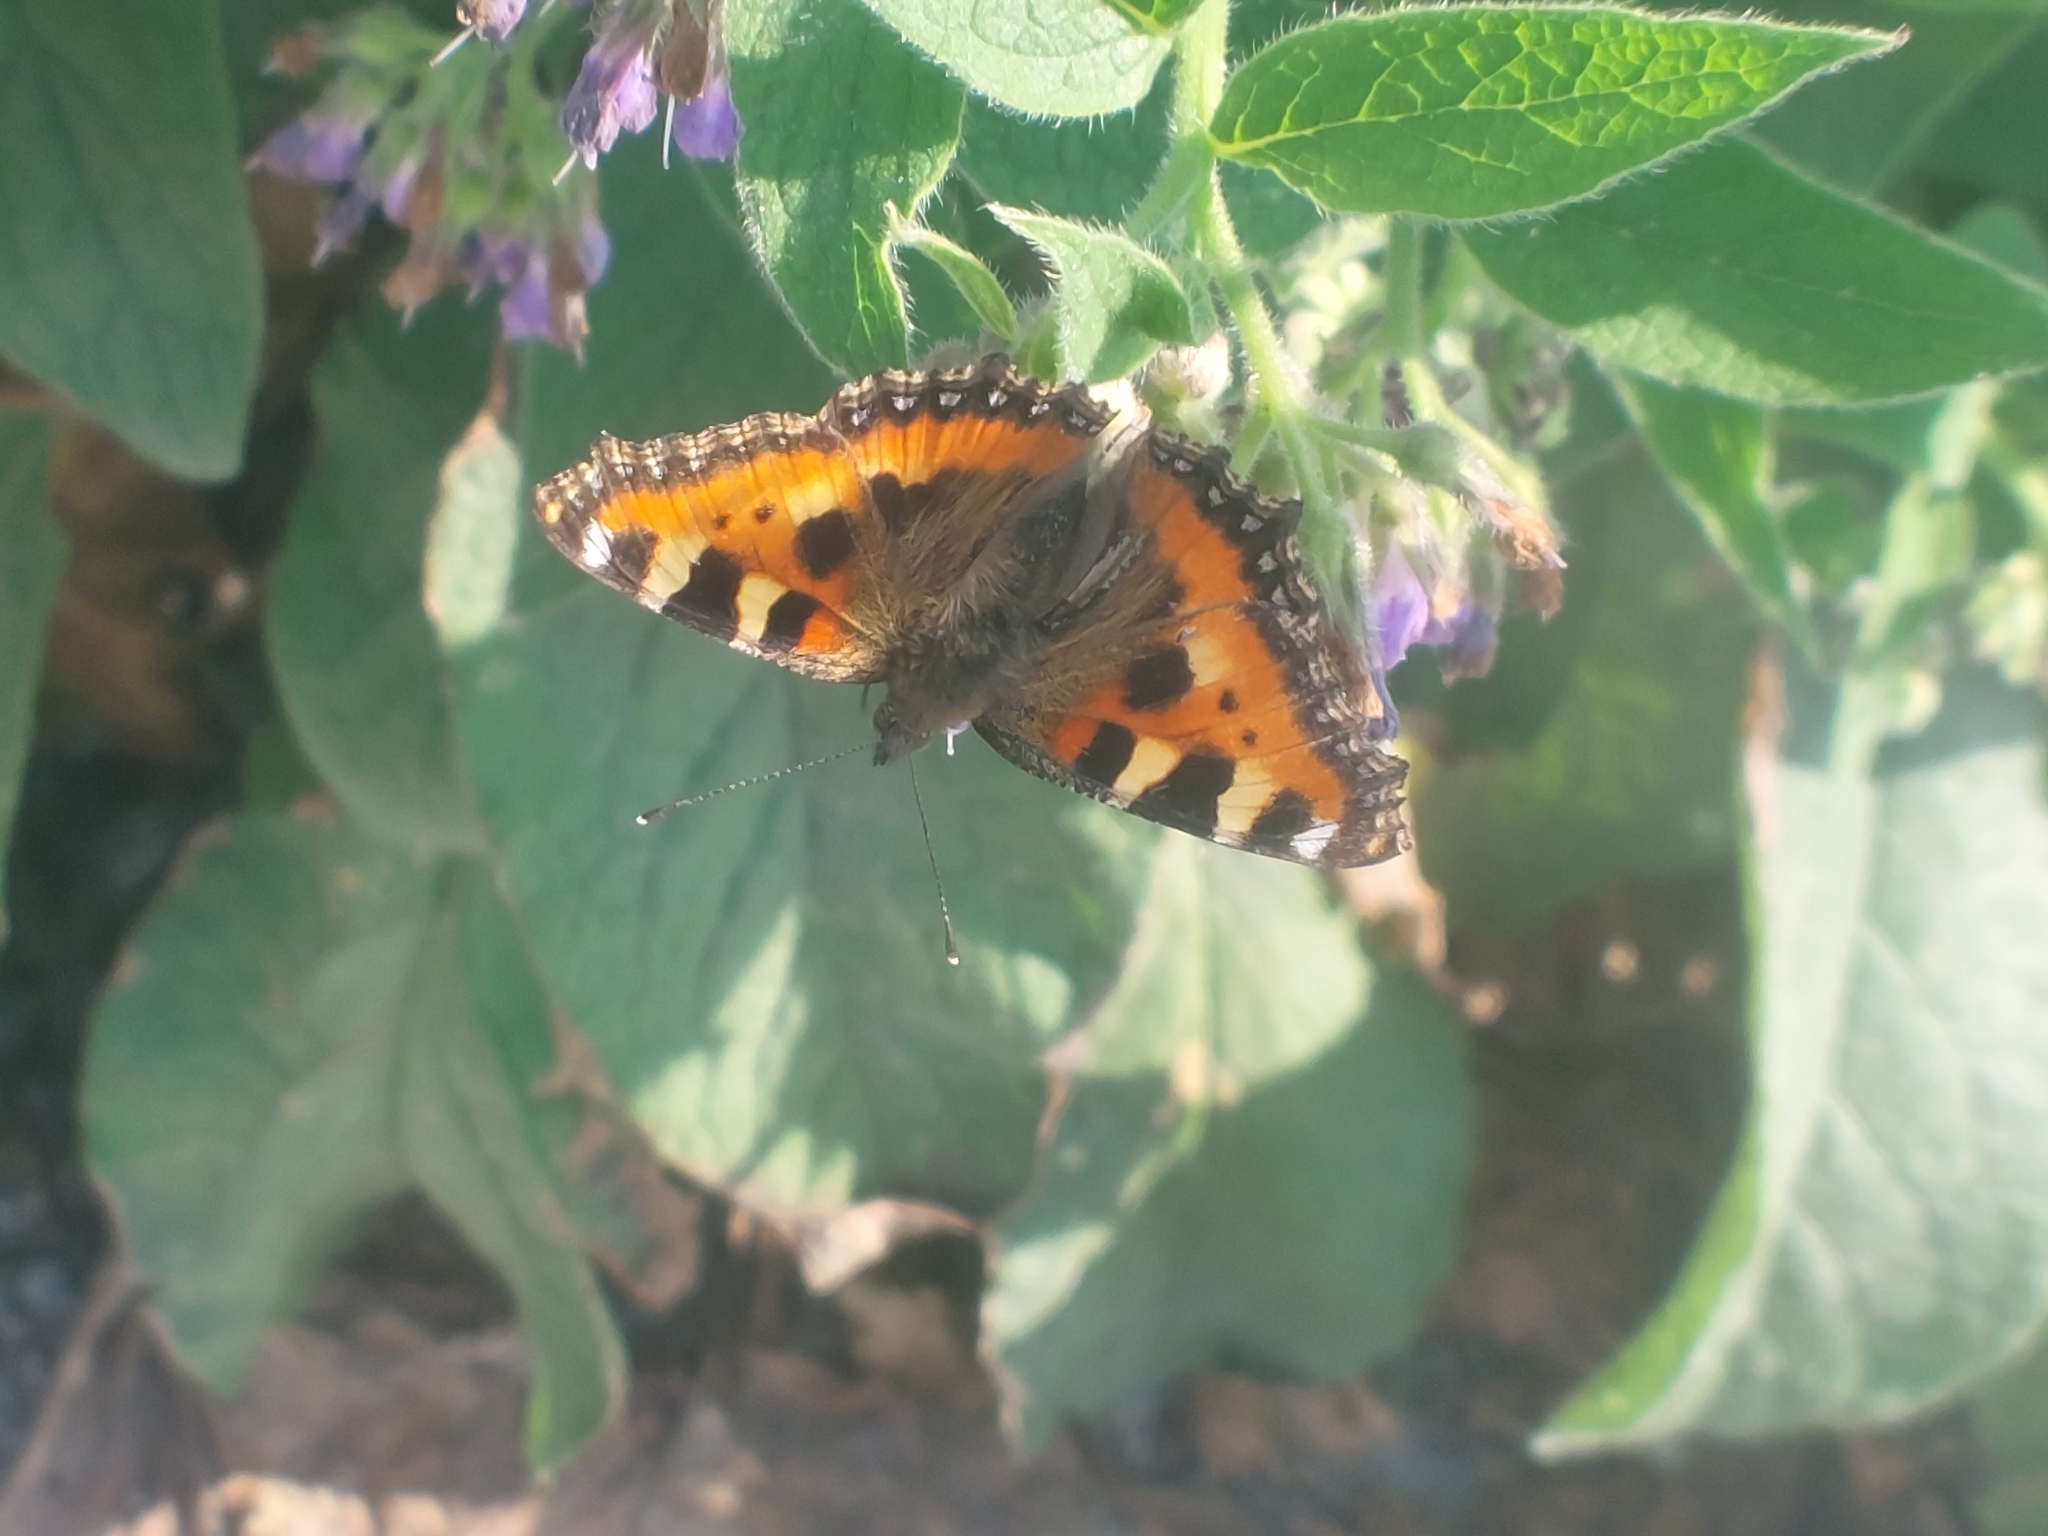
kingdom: Animalia
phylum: Arthropoda
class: Insecta
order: Lepidoptera
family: Nymphalidae
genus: Aglais
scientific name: Aglais urticae
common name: Small tortoiseshell
